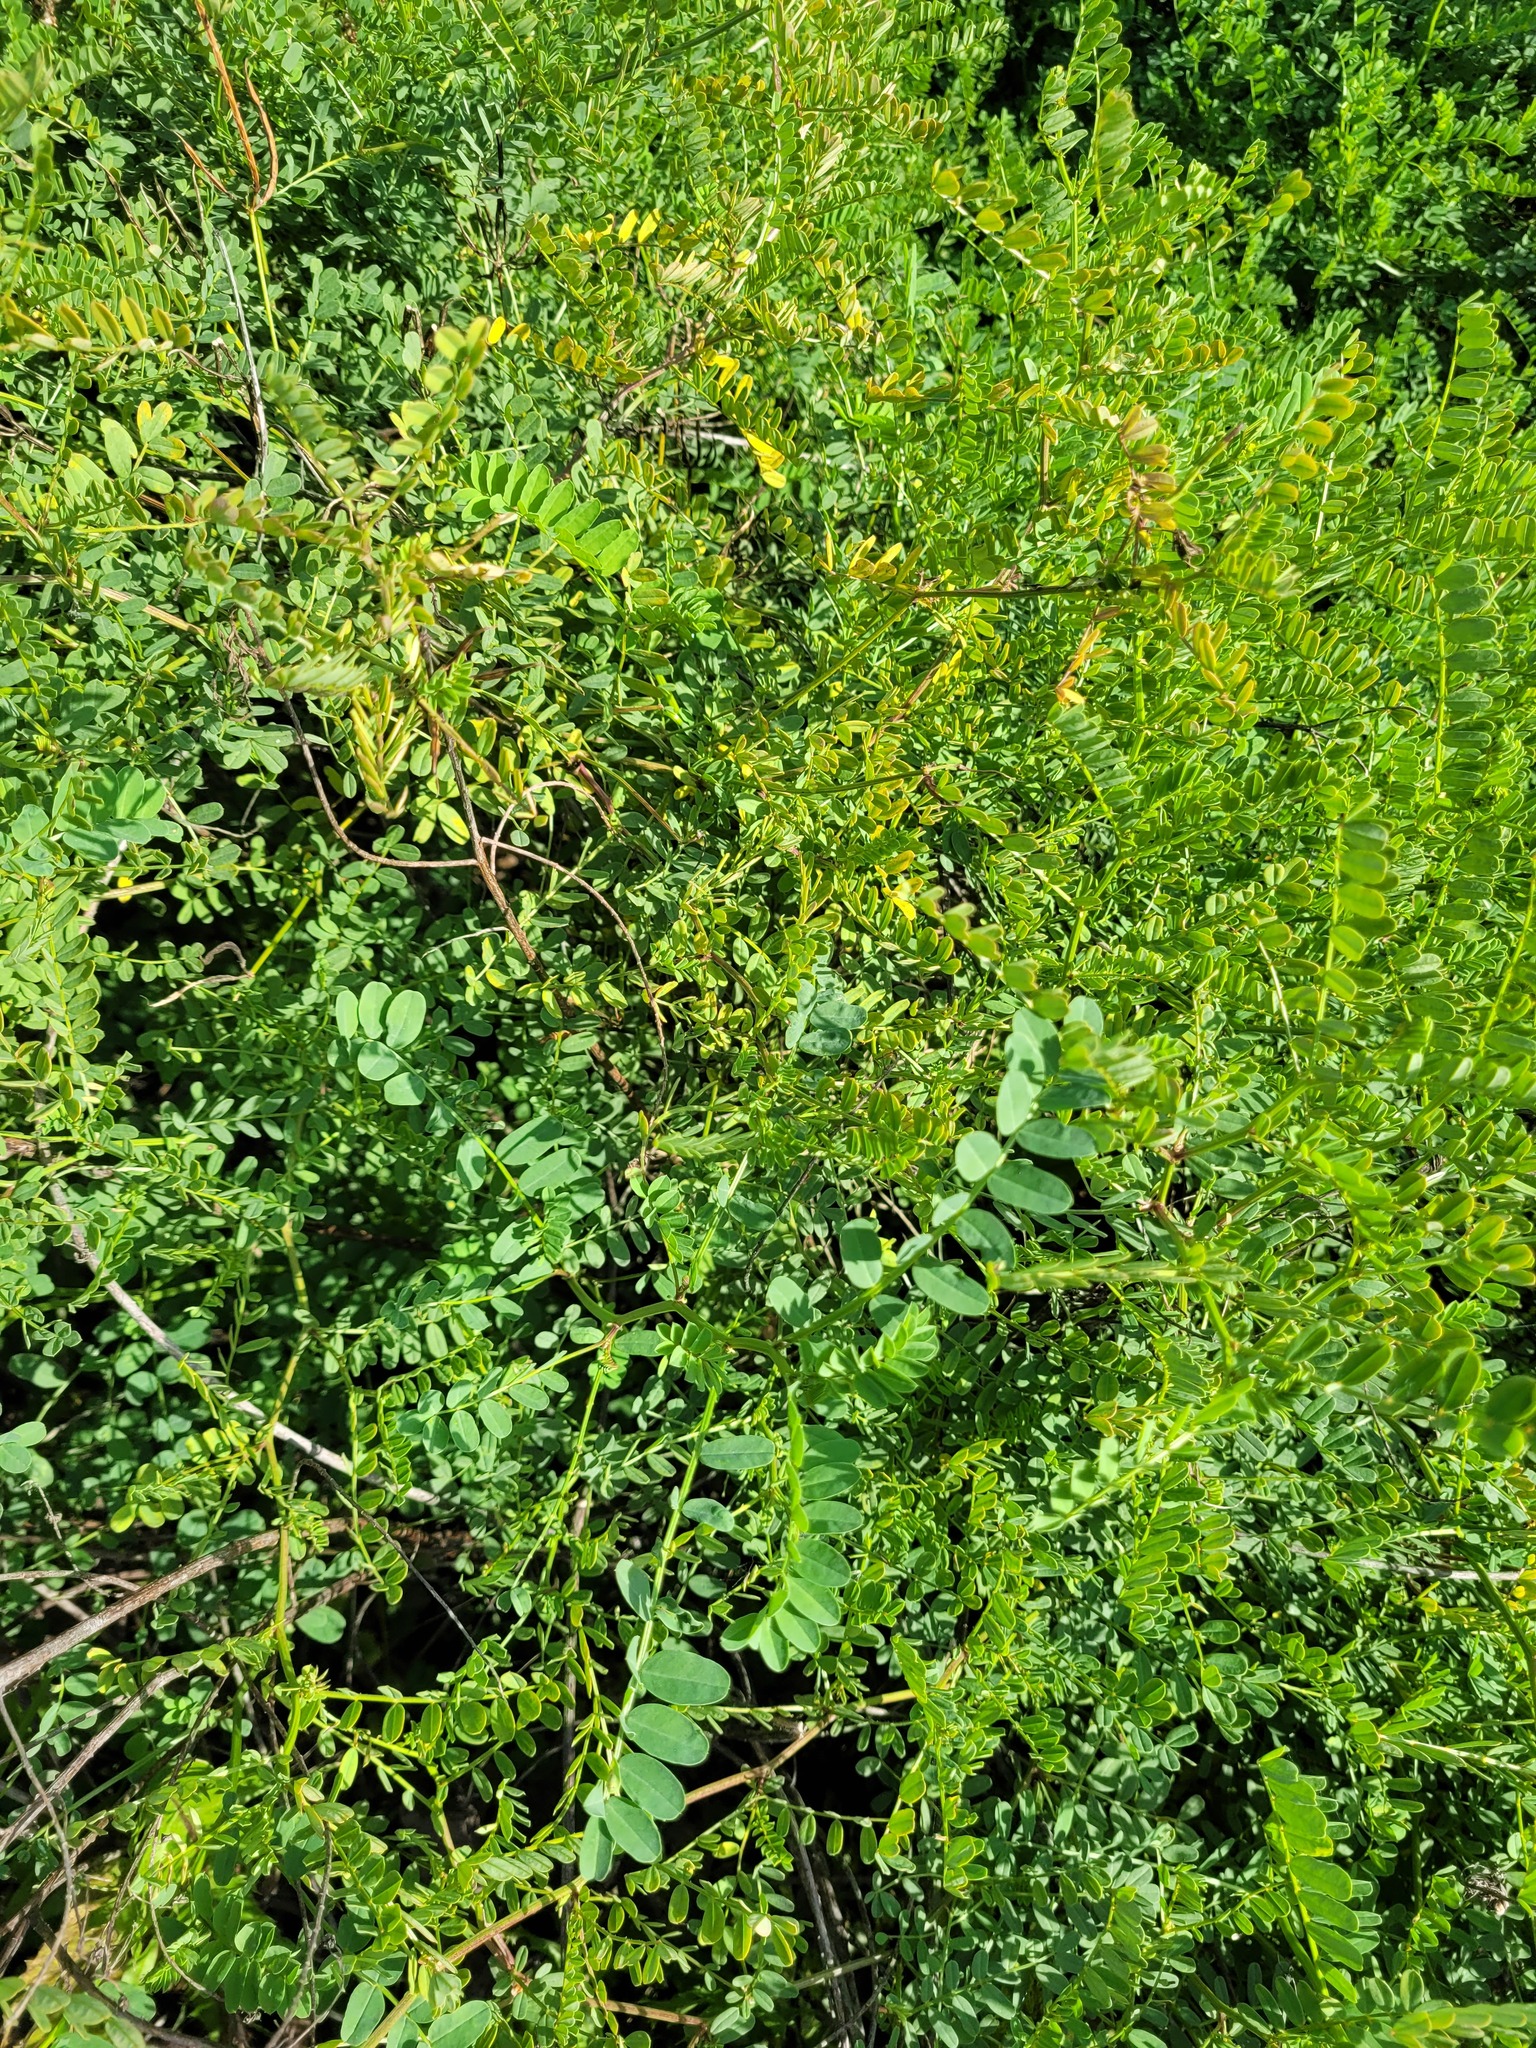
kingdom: Plantae
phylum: Tracheophyta
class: Magnoliopsida
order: Fabales
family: Fabaceae
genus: Coronilla
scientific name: Coronilla varia
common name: Crownvetch
